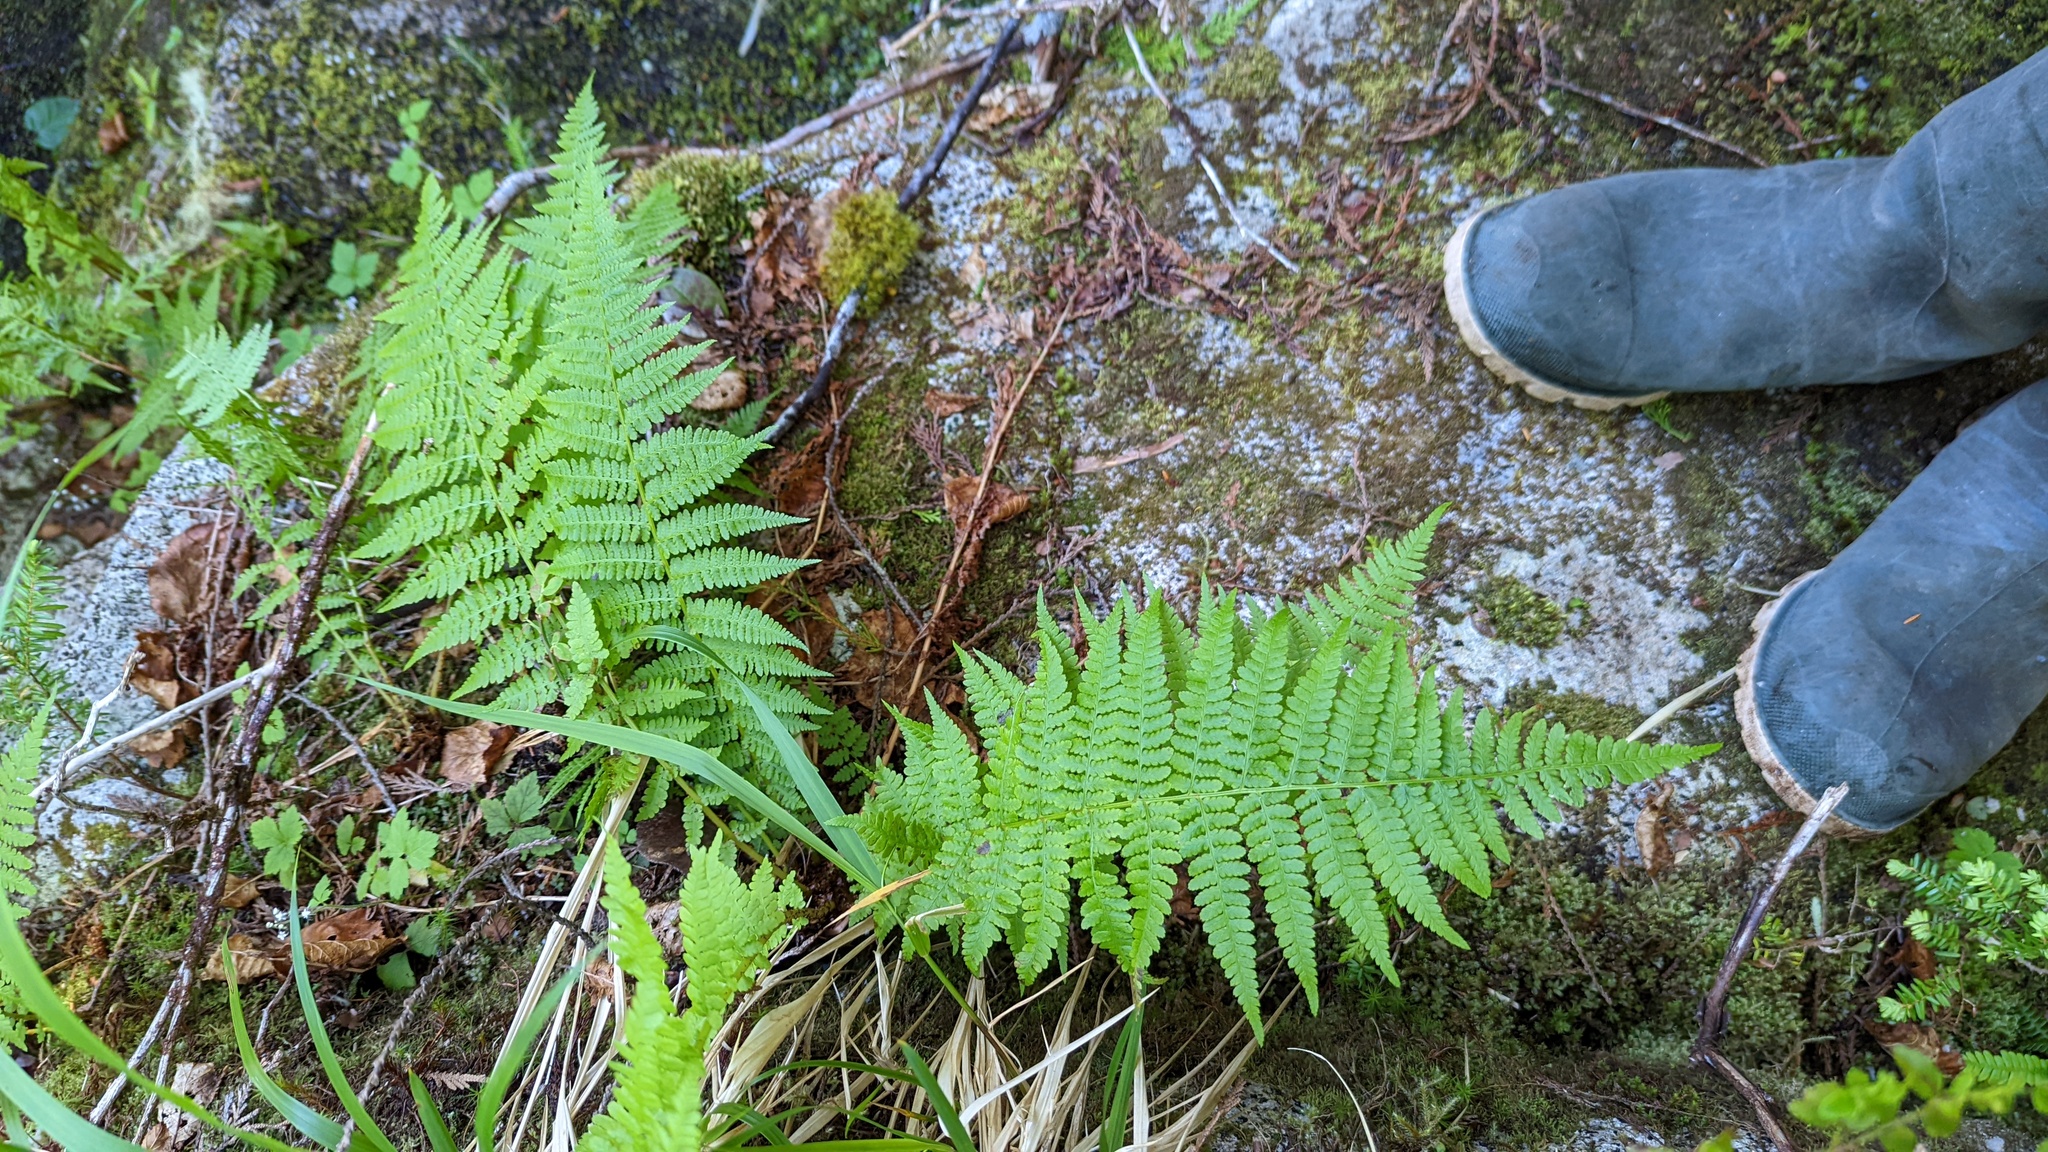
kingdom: Plantae
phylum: Tracheophyta
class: Polypodiopsida
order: Polypodiales
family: Athyriaceae
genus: Athyrium
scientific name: Athyrium filix-femina
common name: Lady fern
